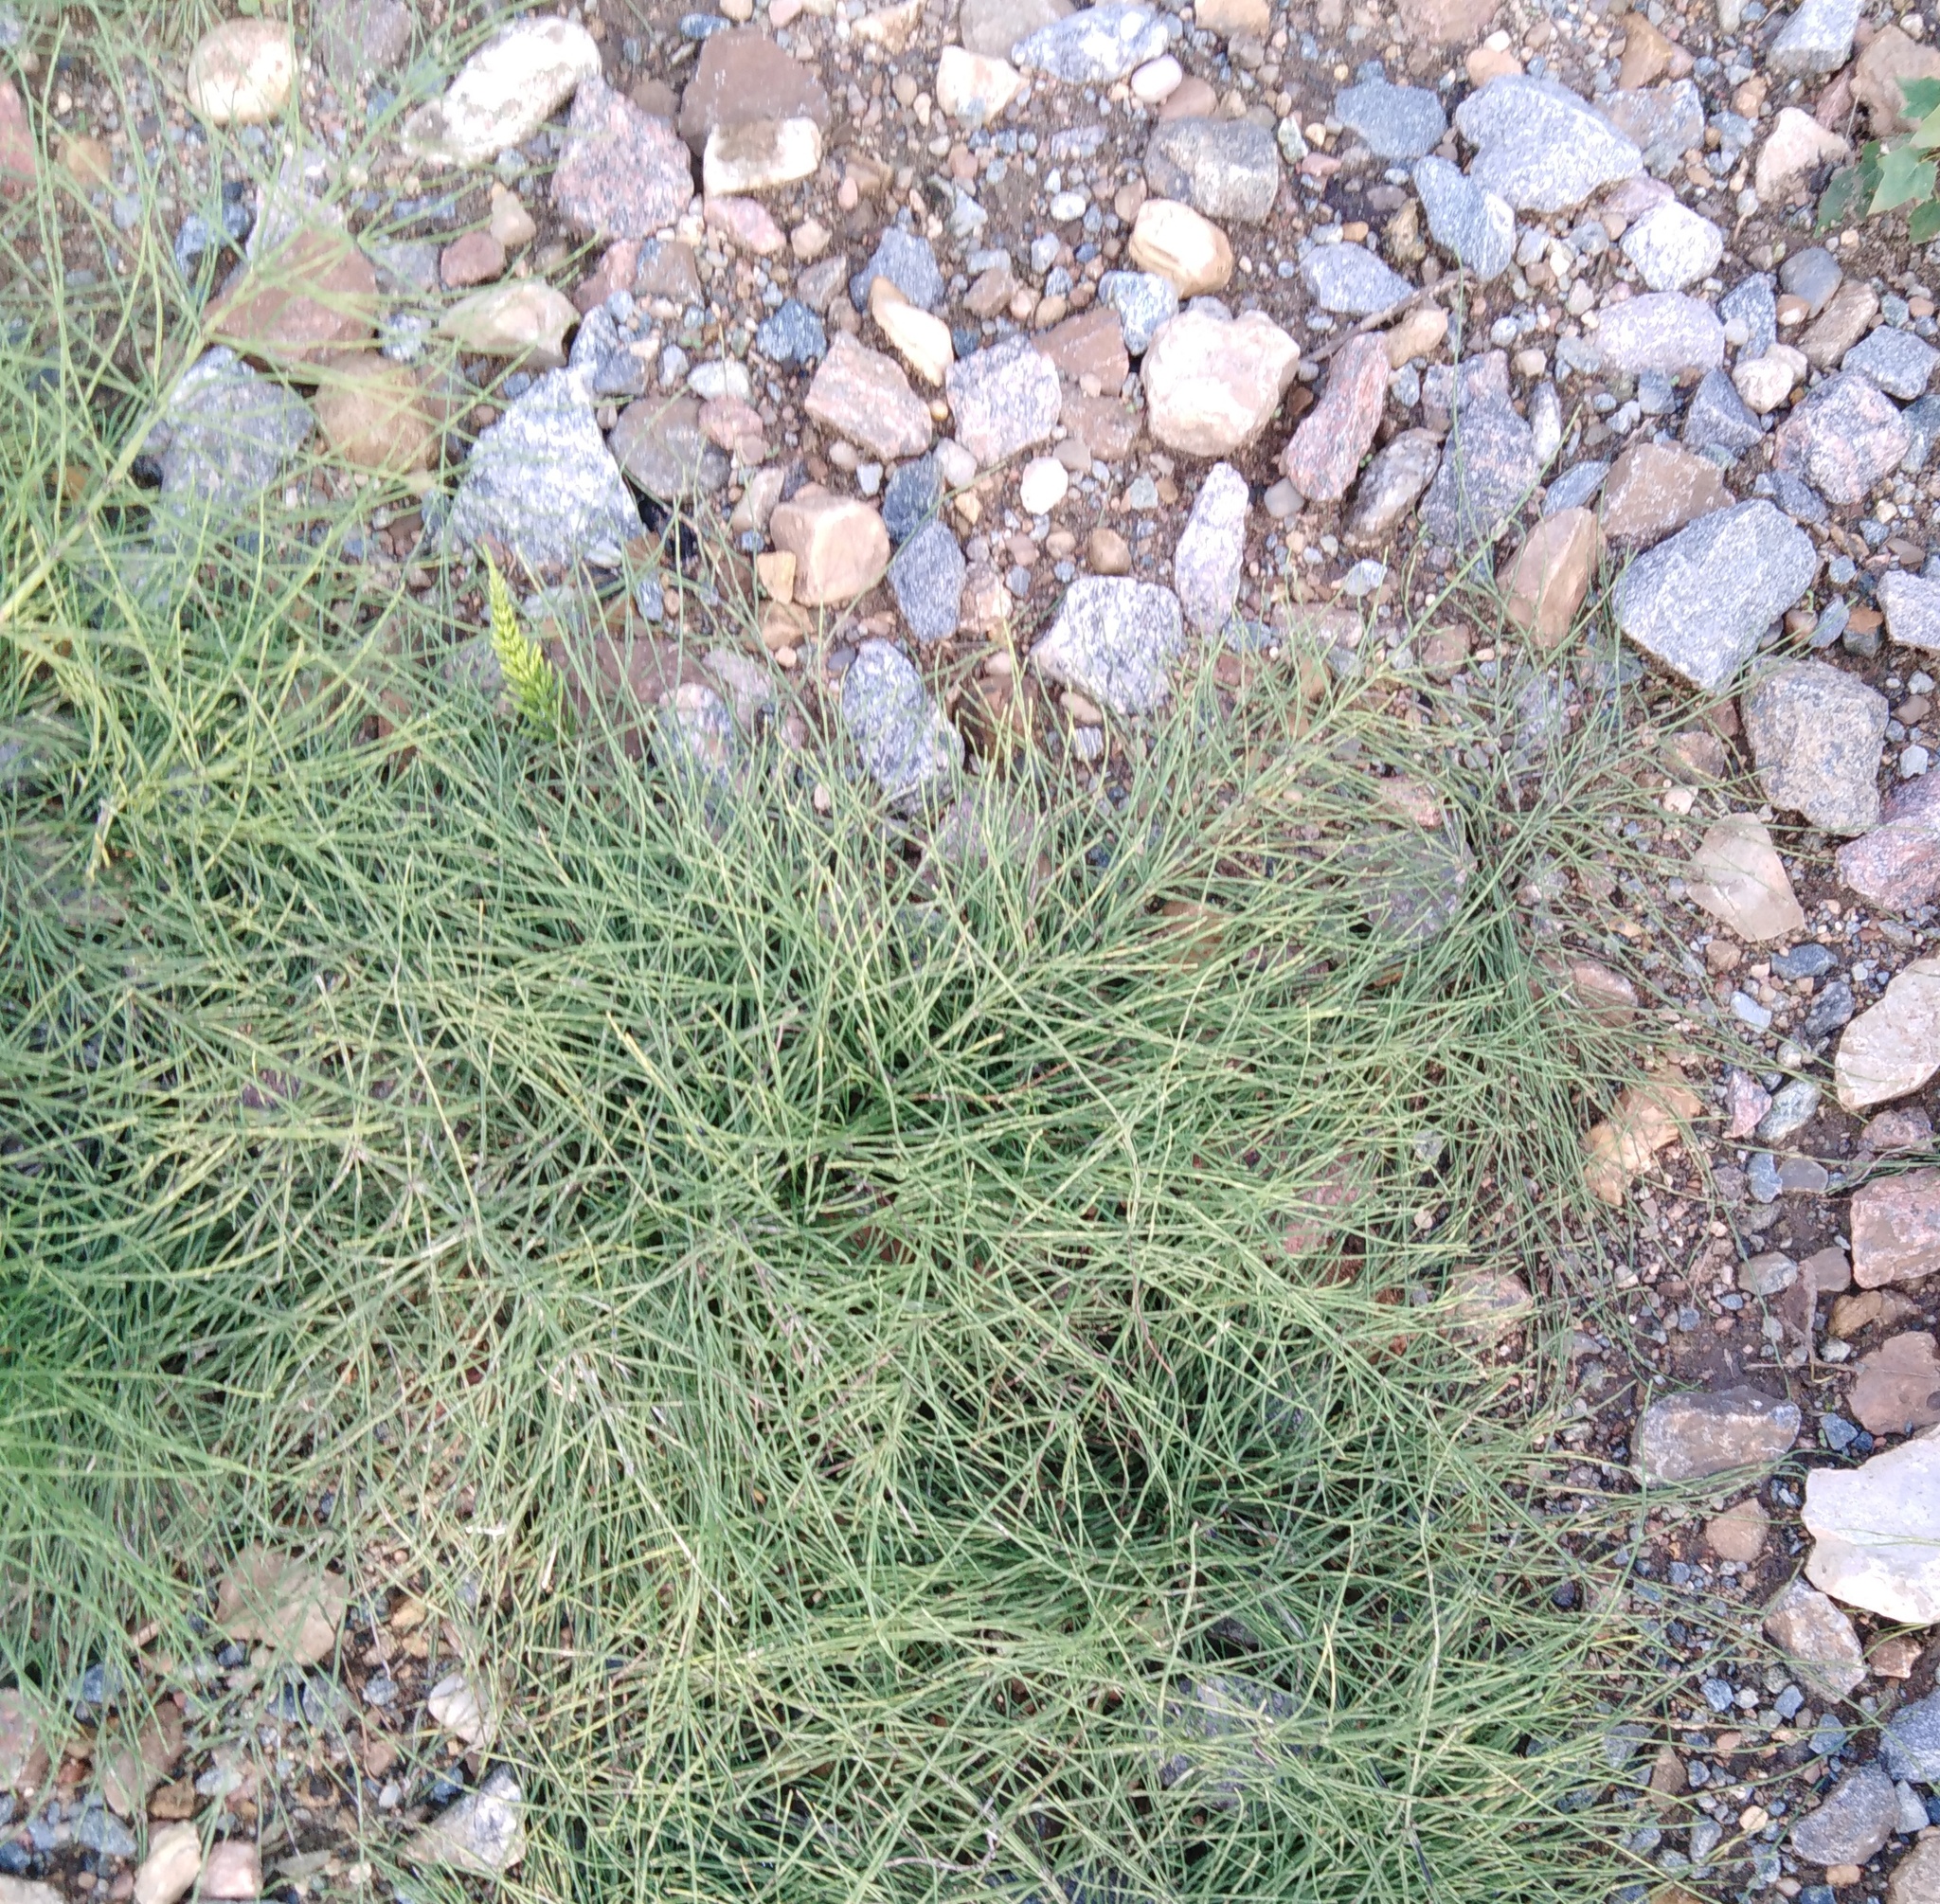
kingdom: Plantae
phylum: Tracheophyta
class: Polypodiopsida
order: Equisetales
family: Equisetaceae
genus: Equisetum
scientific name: Equisetum arvense
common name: Field horsetail
